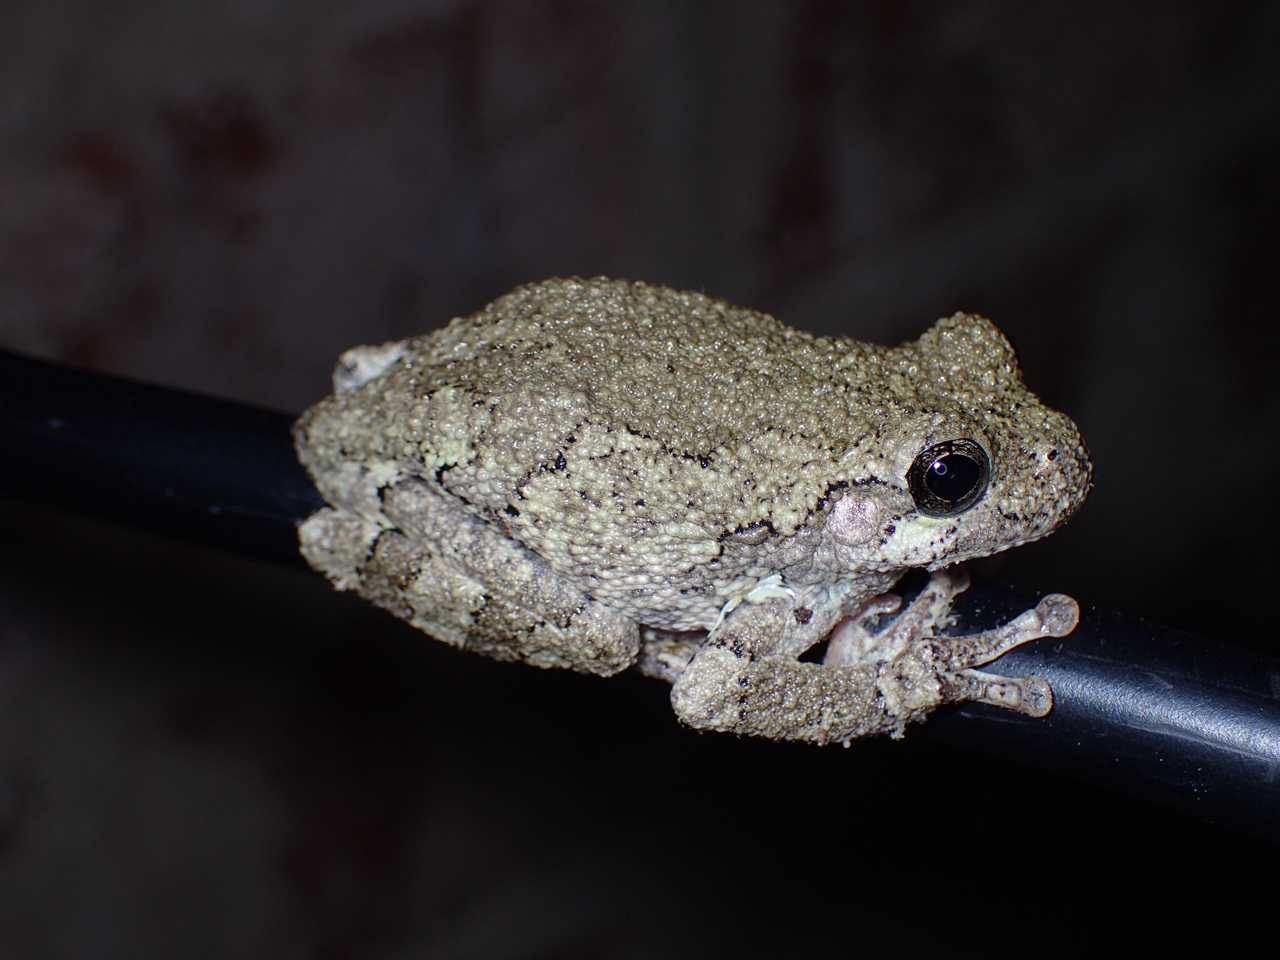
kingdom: Animalia
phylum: Chordata
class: Amphibia
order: Anura
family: Hylidae
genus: Dryophytes
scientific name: Dryophytes chrysoscelis
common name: Cope's gray treefrog
